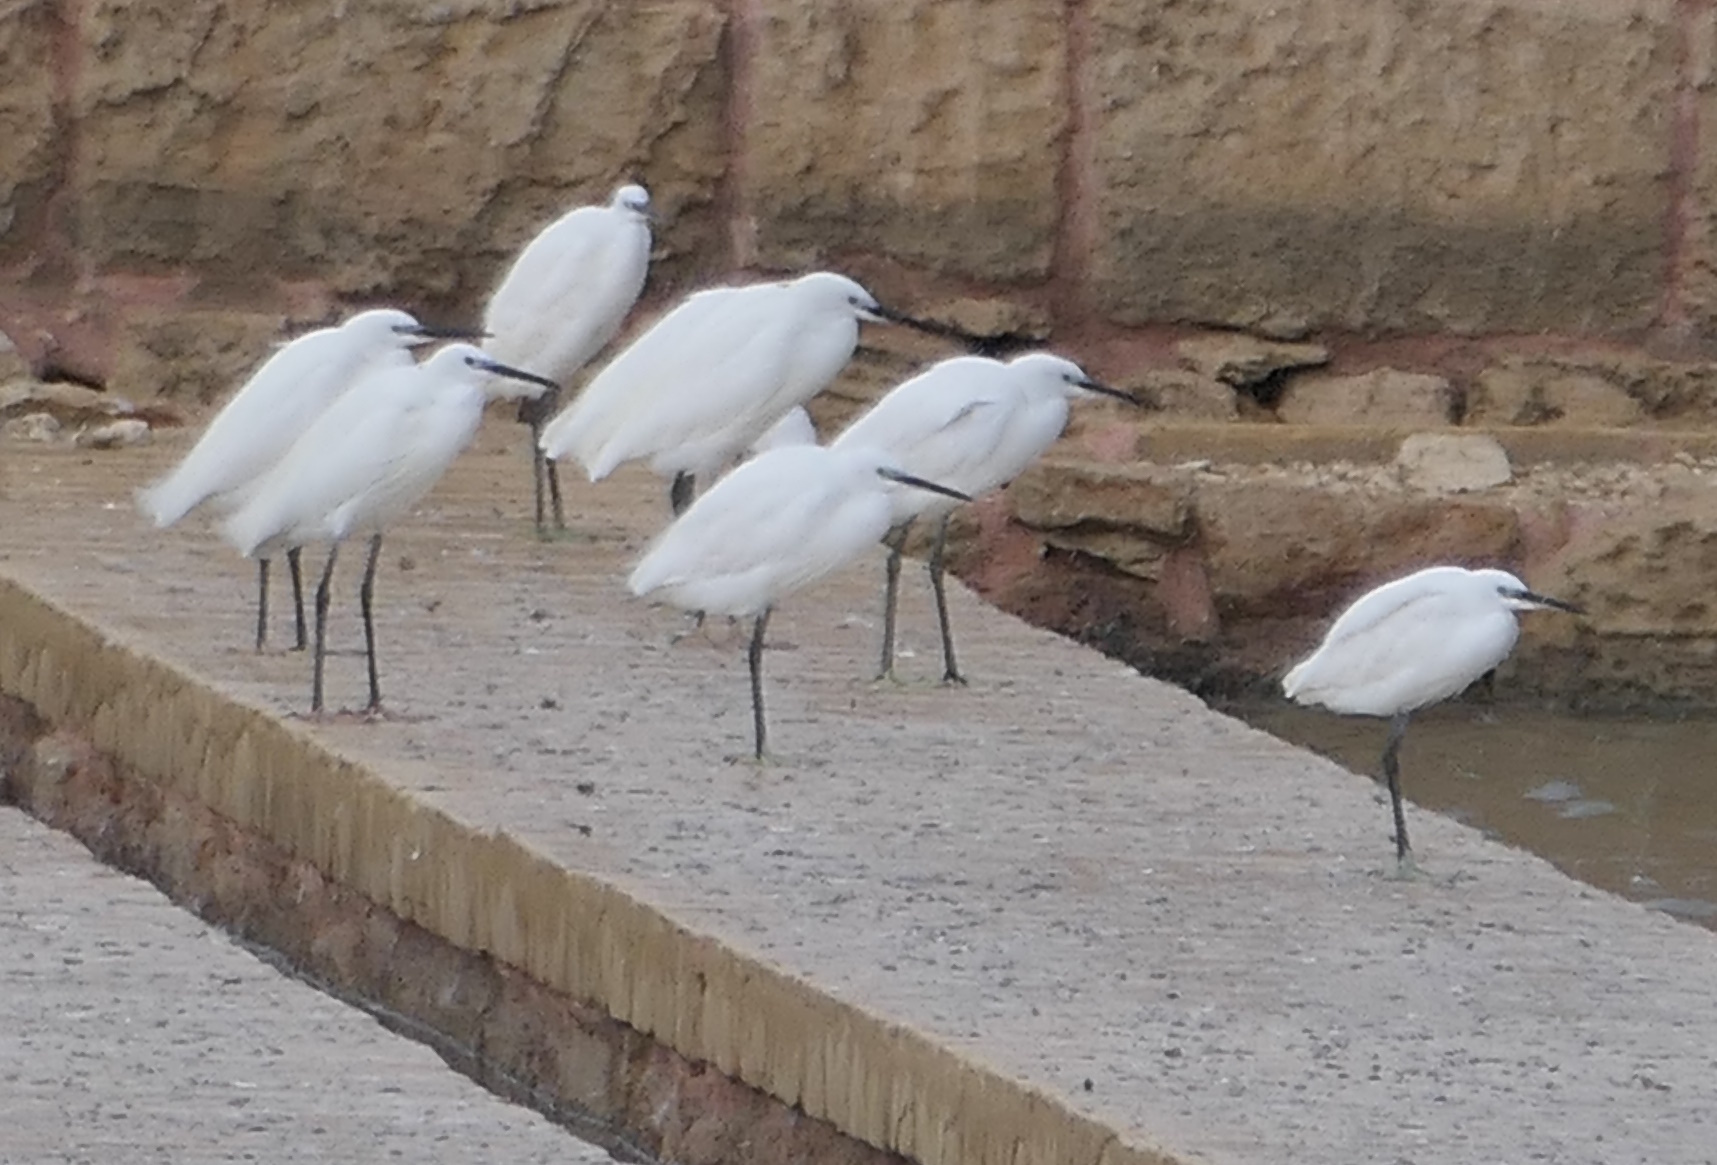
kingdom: Animalia
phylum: Chordata
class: Aves
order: Pelecaniformes
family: Ardeidae
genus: Egretta
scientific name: Egretta garzetta
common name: Little egret
